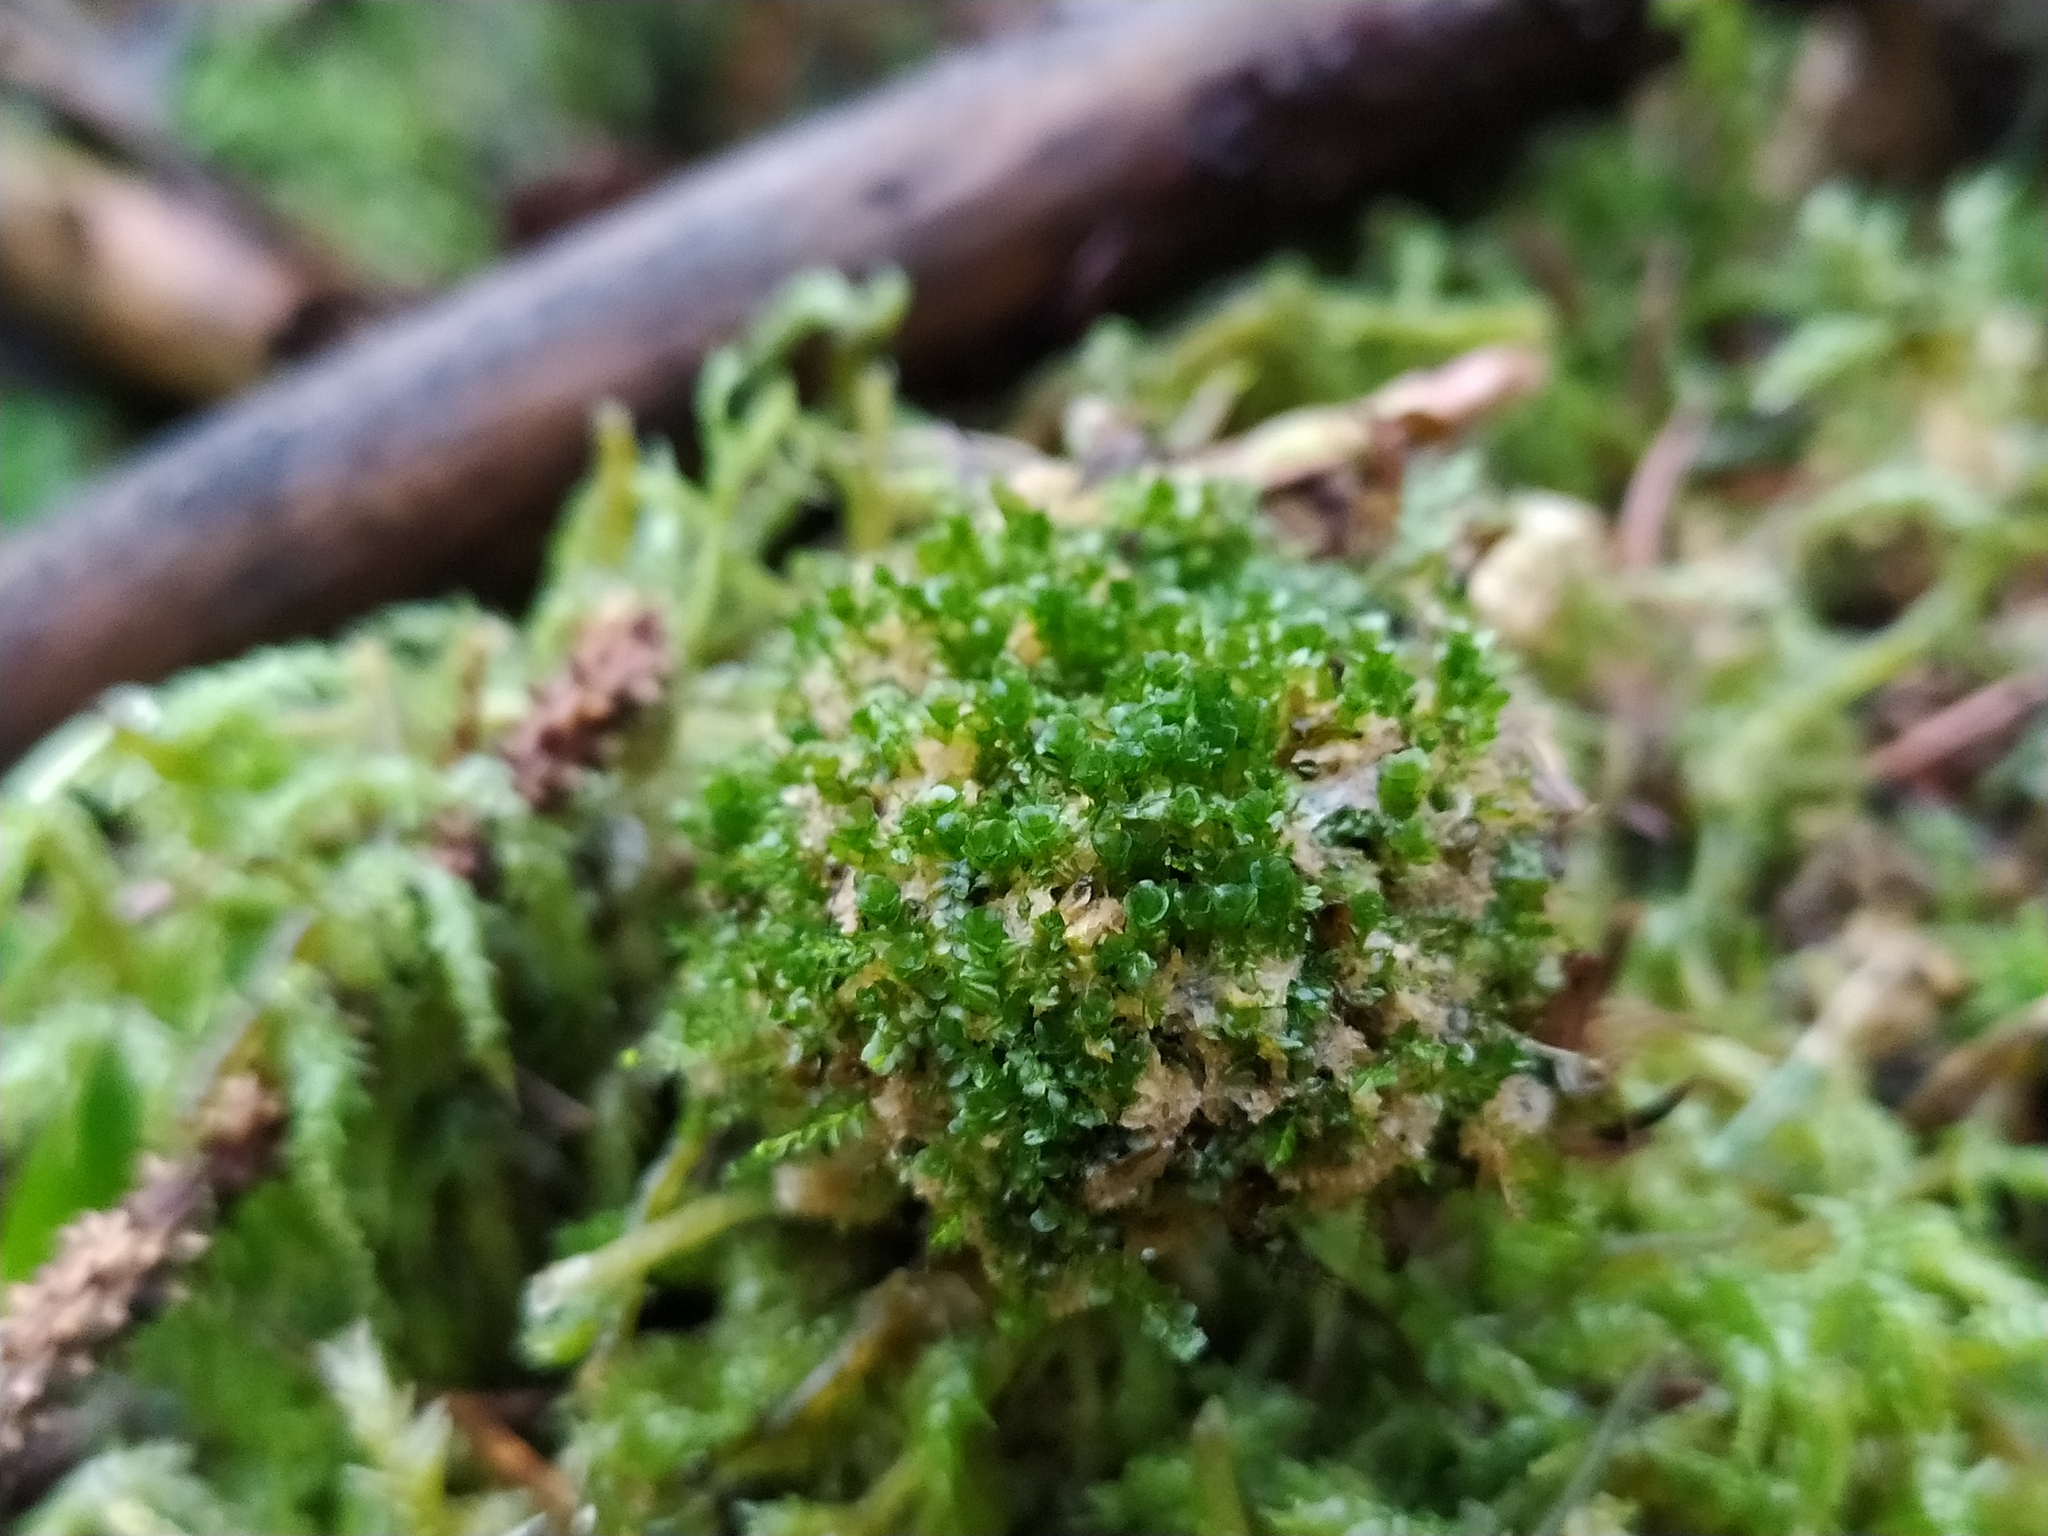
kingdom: Plantae
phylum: Bryophyta
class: Polytrichopsida
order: Tetraphidales
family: Tetraphidaceae
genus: Tetraphis
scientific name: Tetraphis pellucida
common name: Common four-toothed moss
